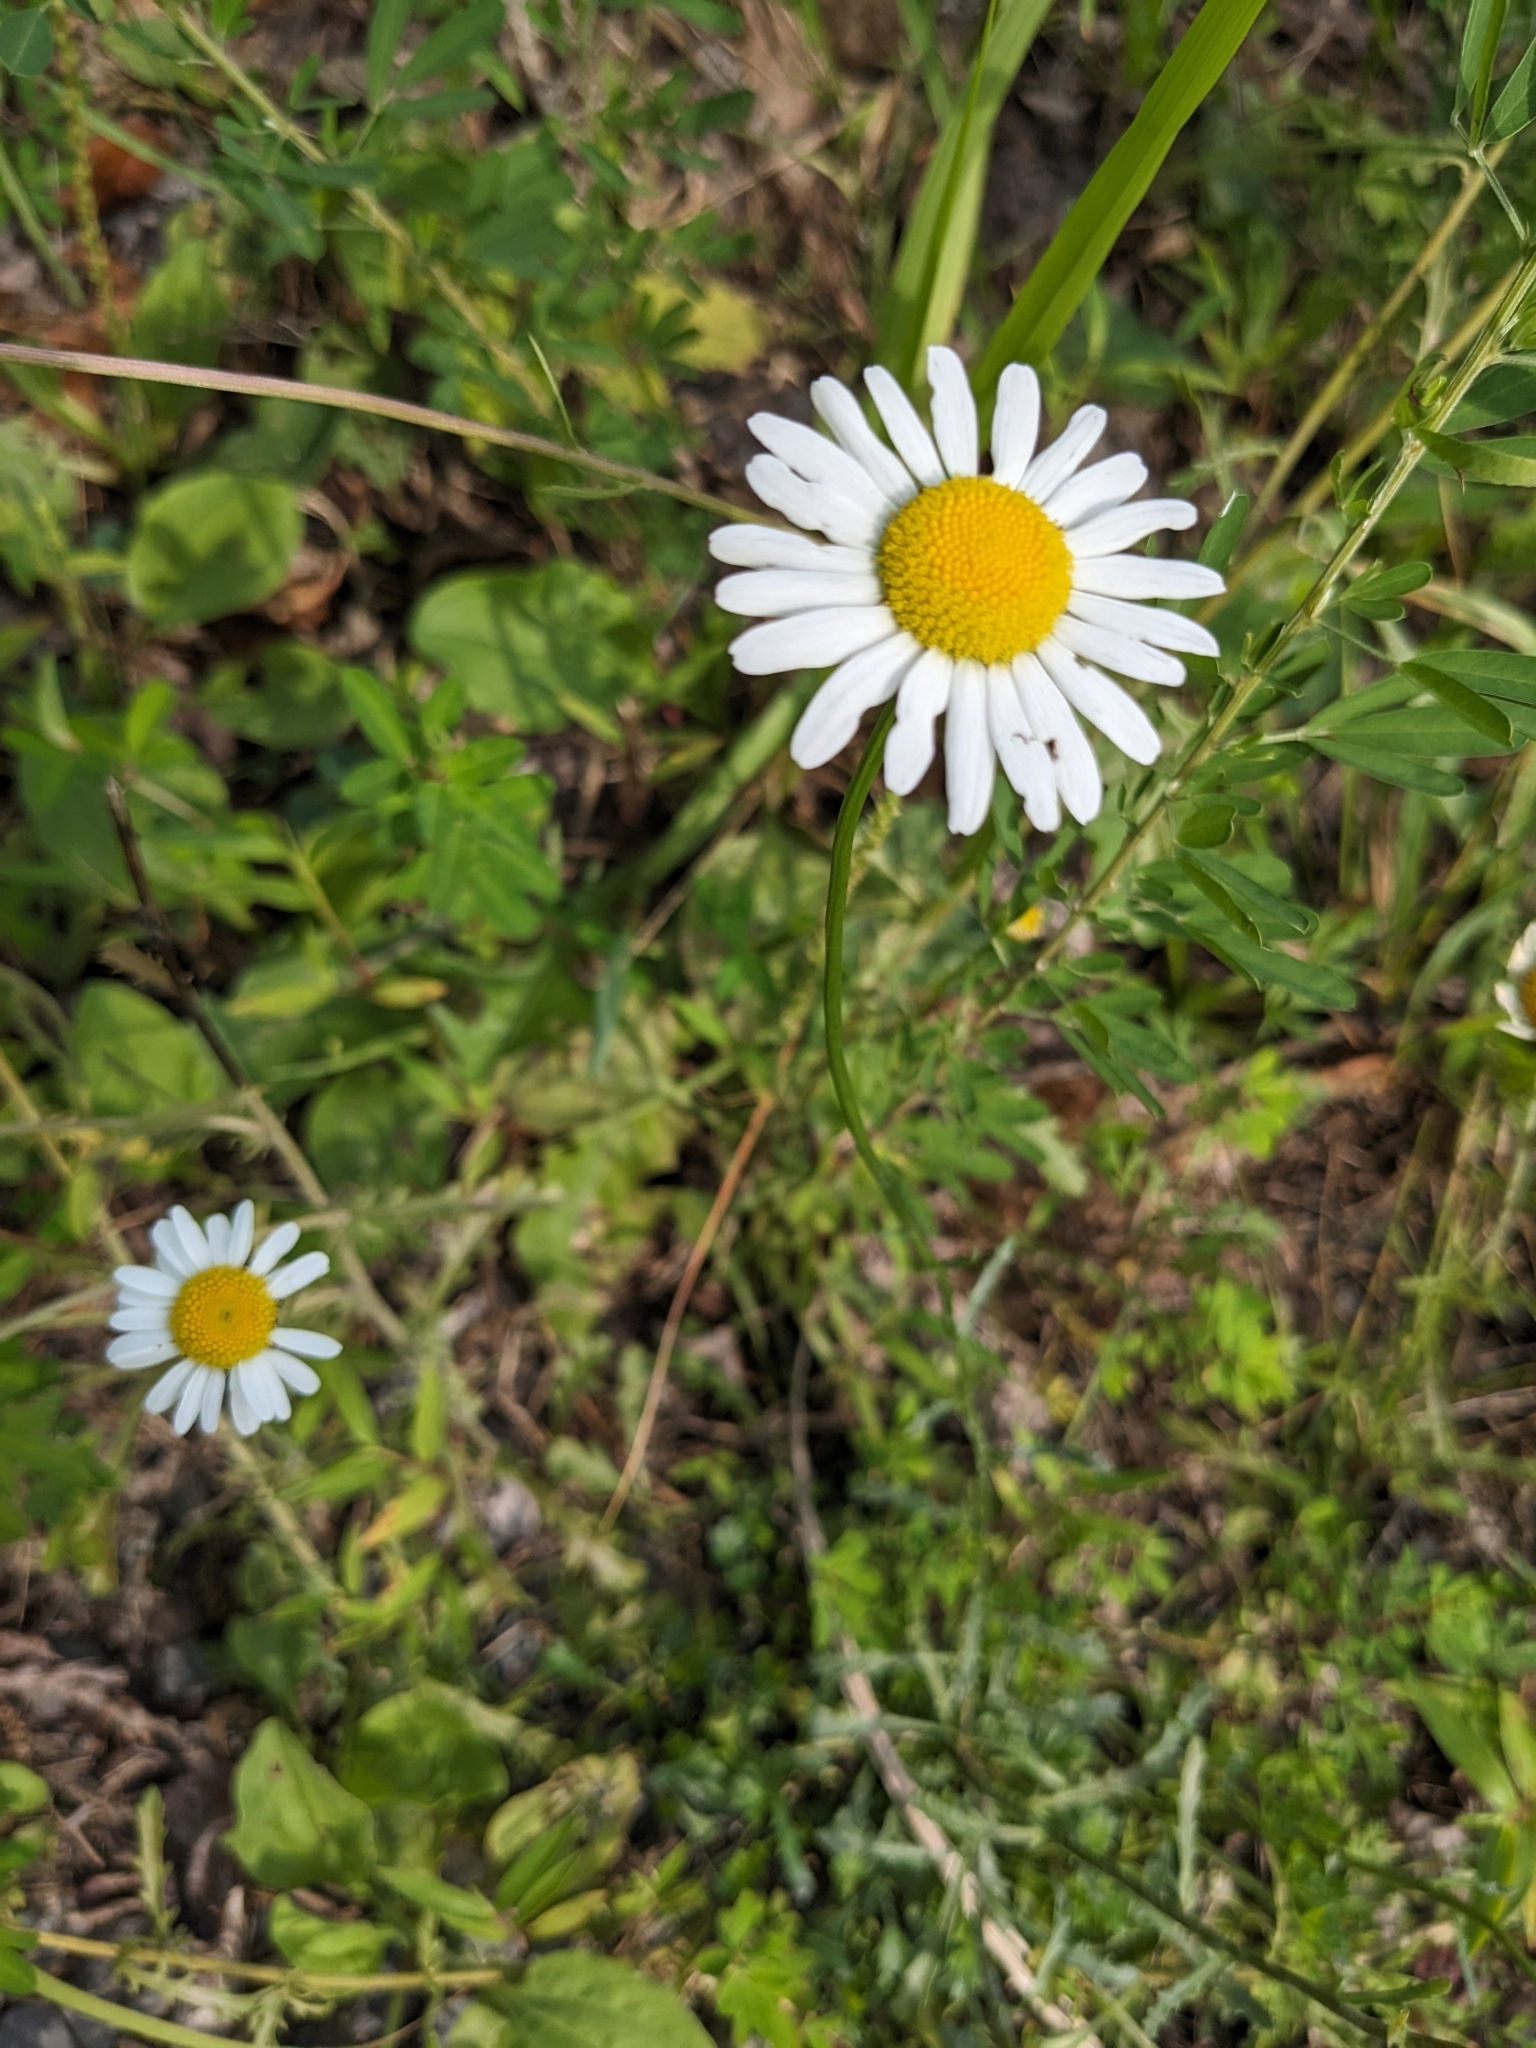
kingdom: Plantae
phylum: Tracheophyta
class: Magnoliopsida
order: Asterales
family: Asteraceae
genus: Leucanthemum
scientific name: Leucanthemum vulgare
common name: Oxeye daisy
